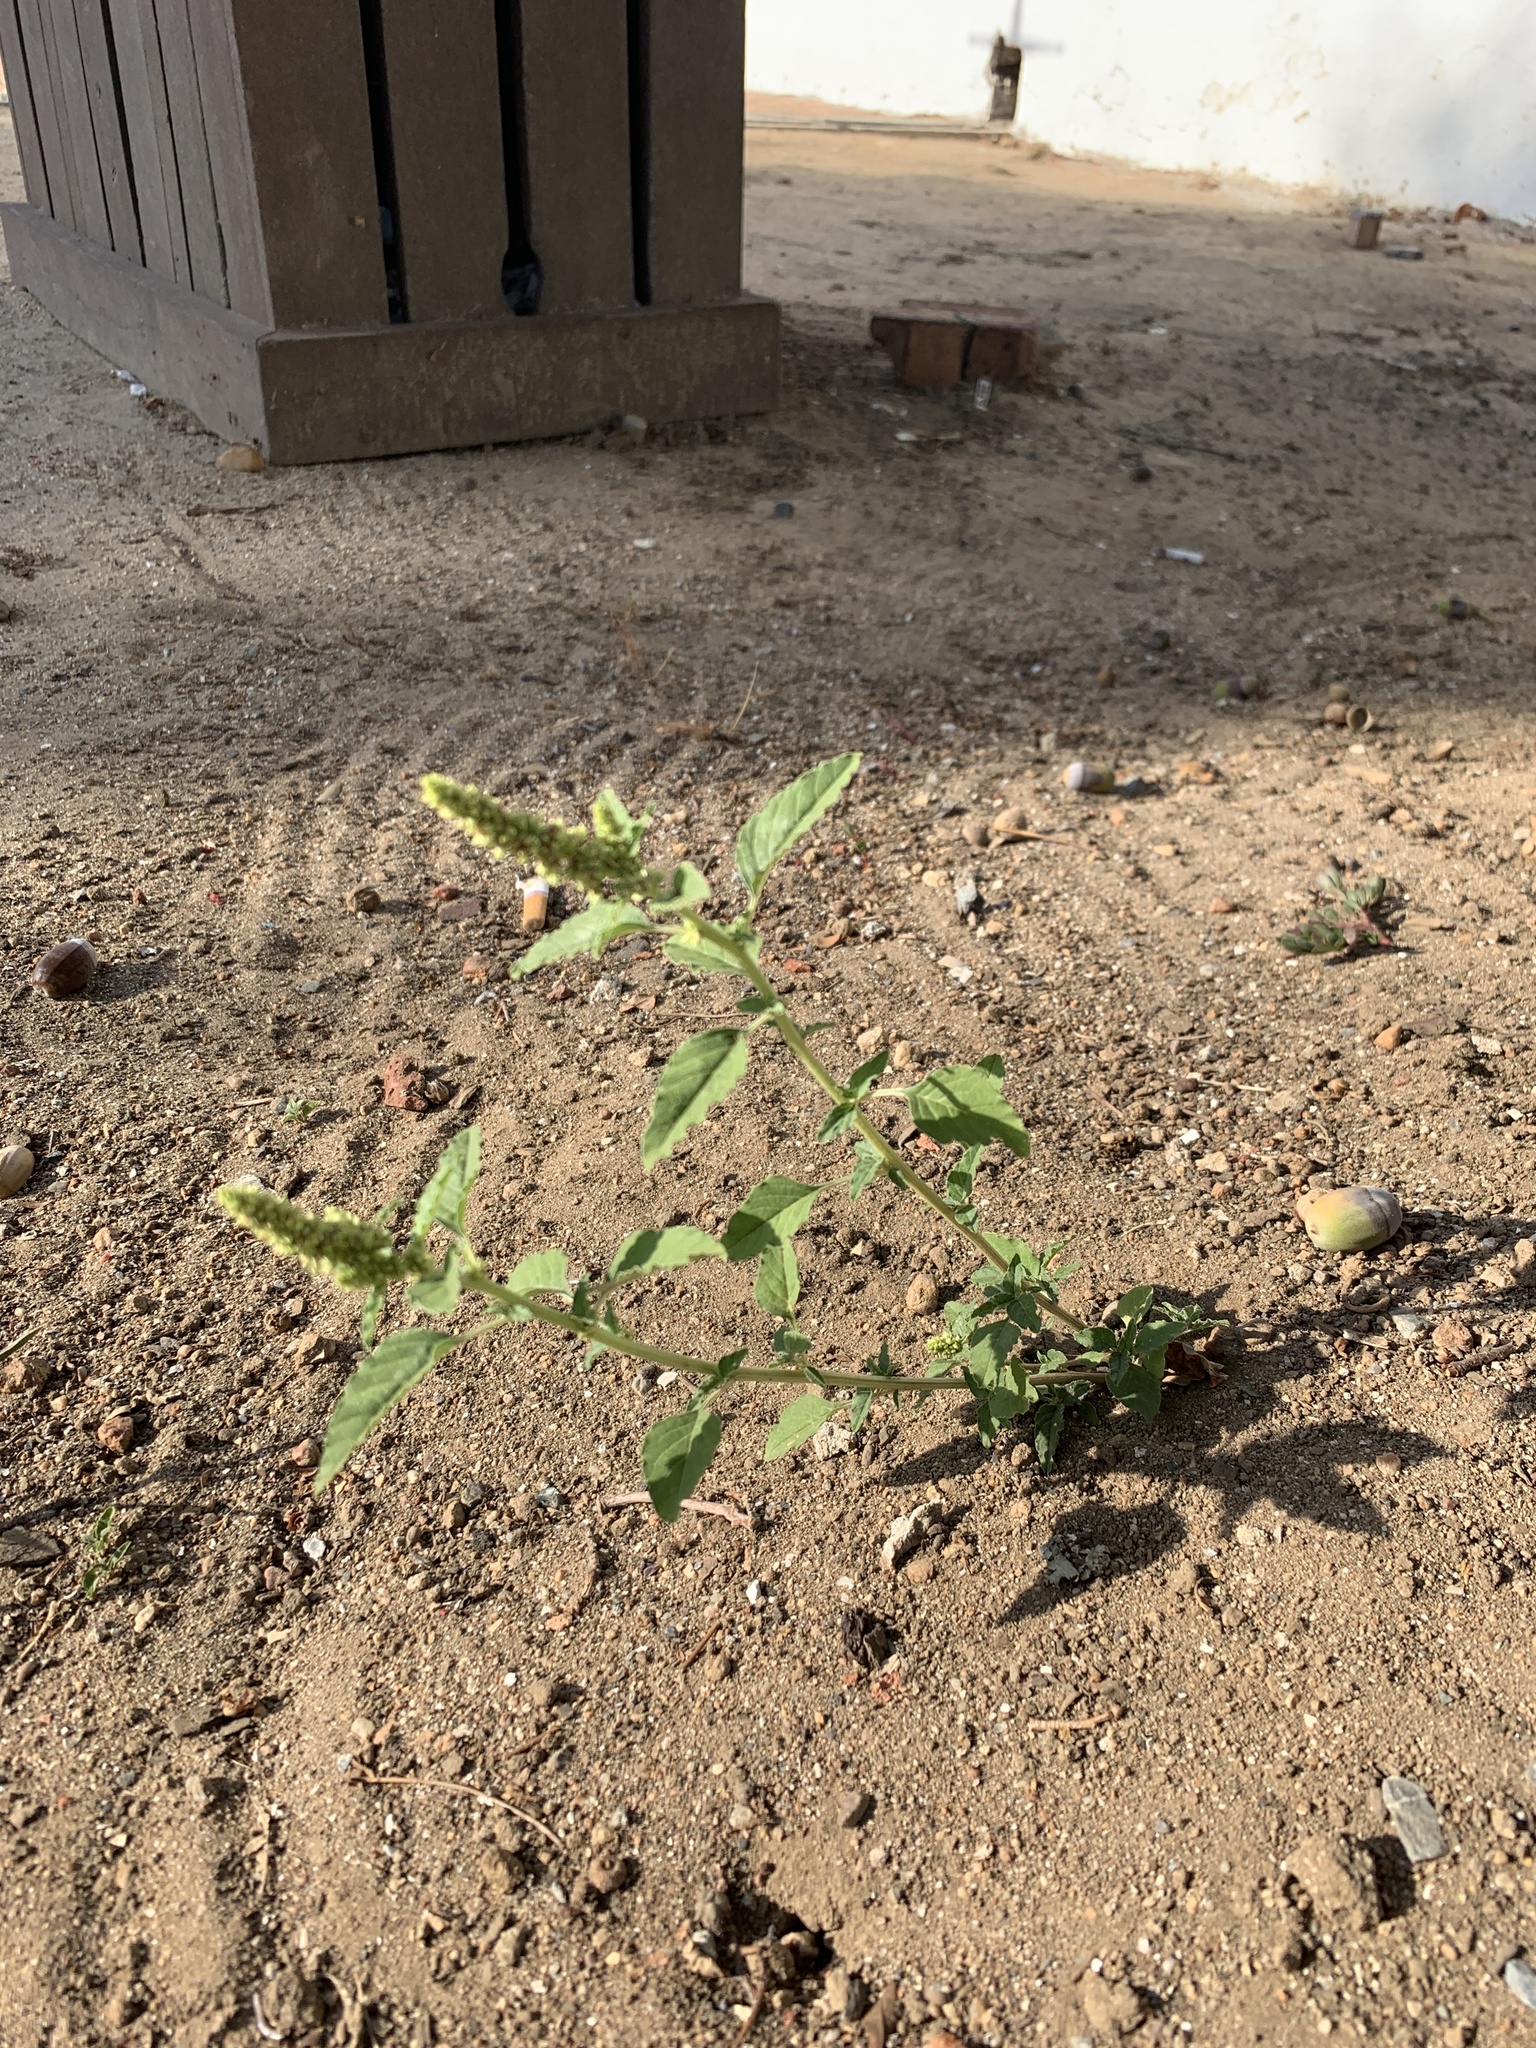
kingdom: Plantae
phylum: Tracheophyta
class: Magnoliopsida
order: Caryophyllales
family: Amaranthaceae
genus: Amaranthus
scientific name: Amaranthus deflexus
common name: Perennial pigweed
